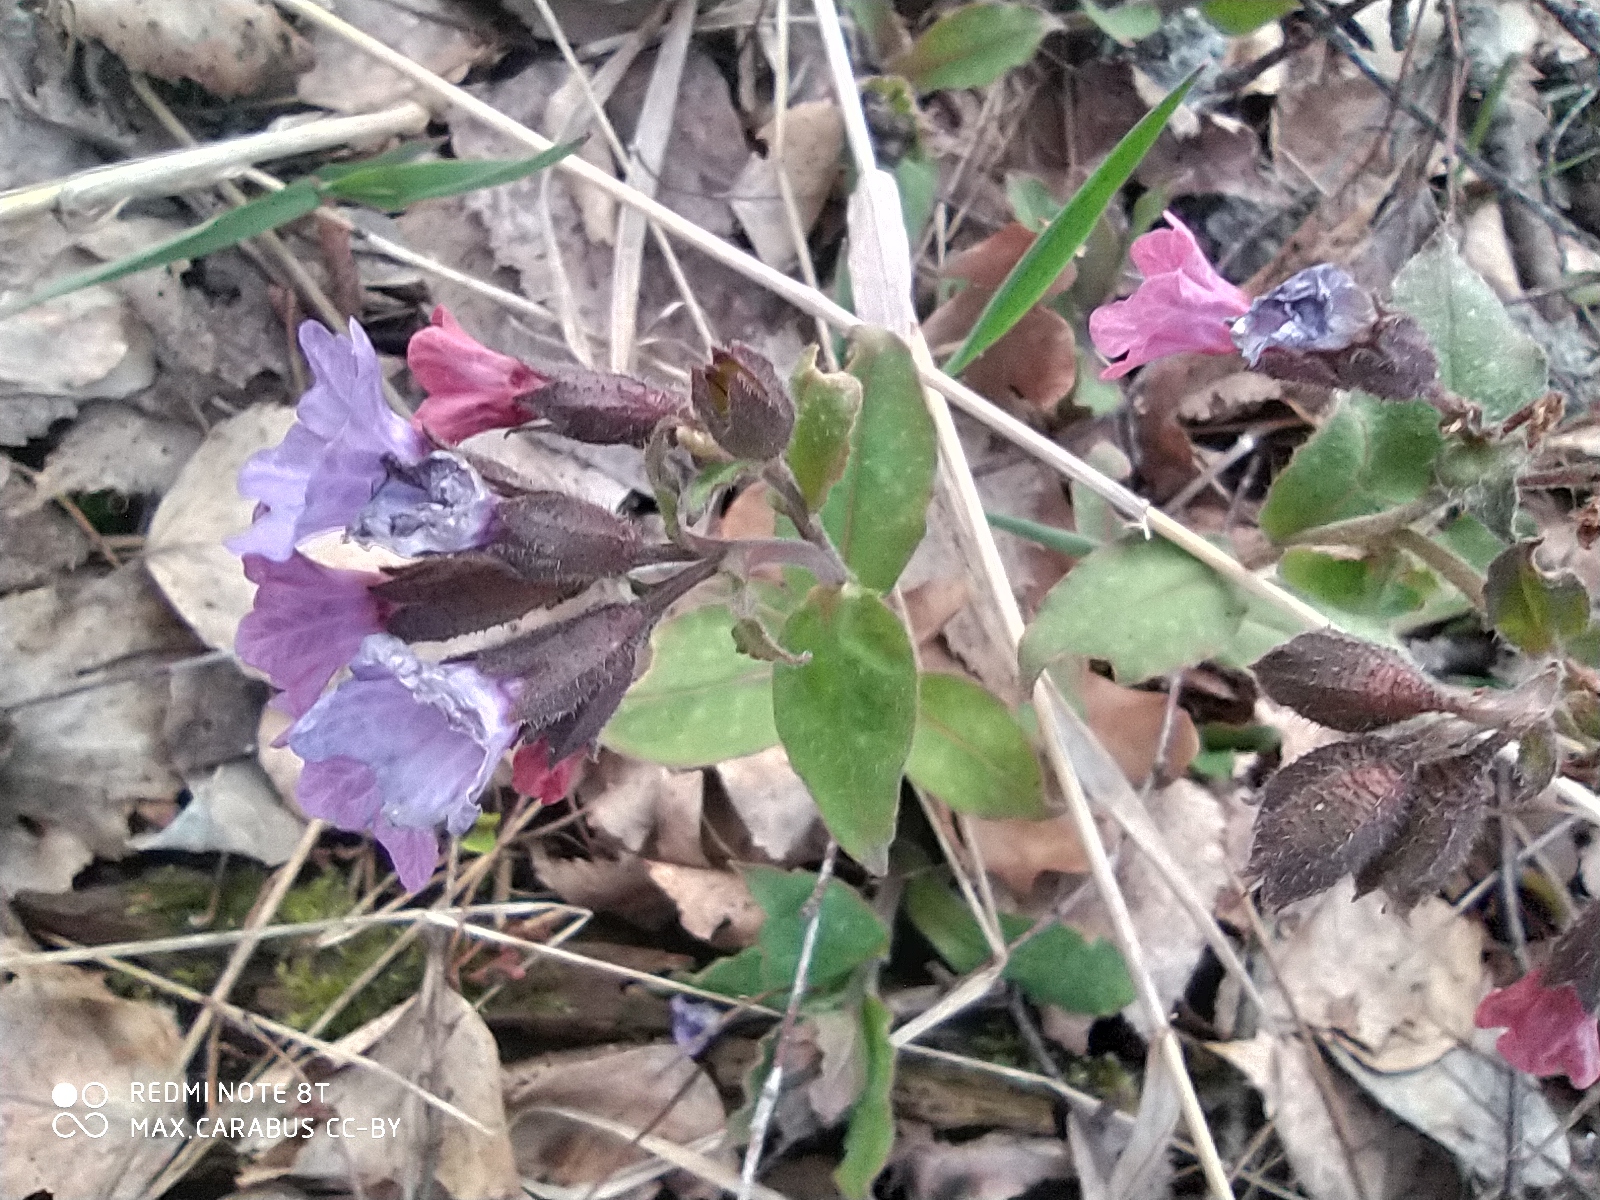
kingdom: Plantae
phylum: Tracheophyta
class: Magnoliopsida
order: Boraginales
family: Boraginaceae
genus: Pulmonaria
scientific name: Pulmonaria obscura
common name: Suffolk lungwort
